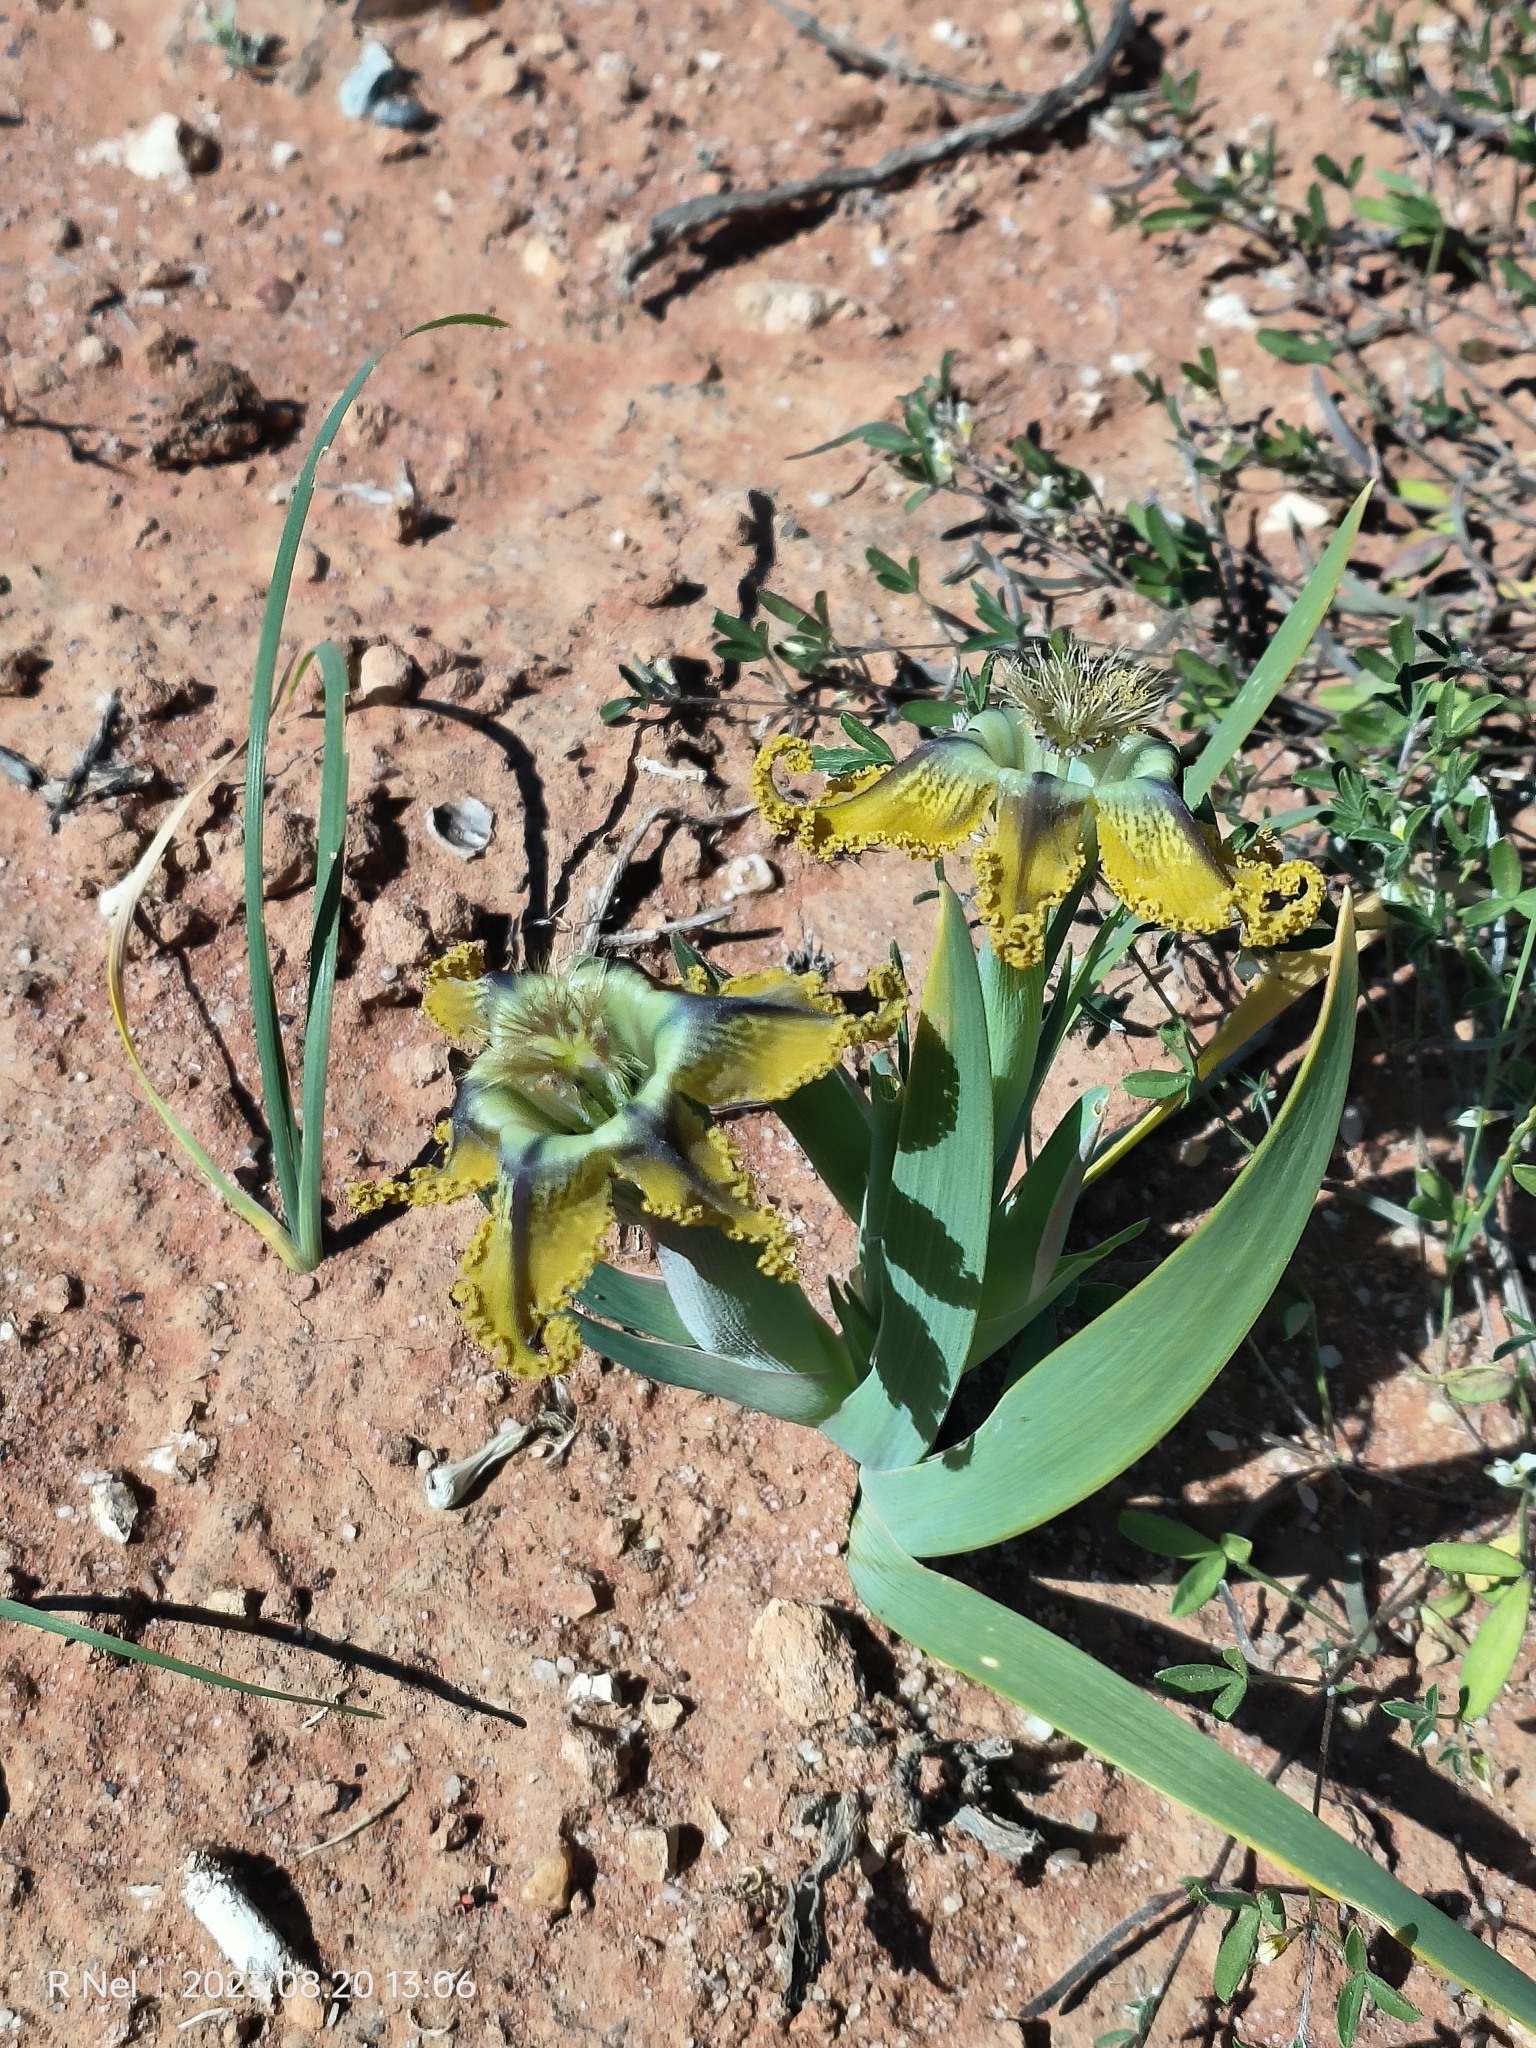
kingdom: Plantae
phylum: Tracheophyta
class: Liliopsida
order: Asparagales
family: Iridaceae
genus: Ferraria
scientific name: Ferraria variabilis
